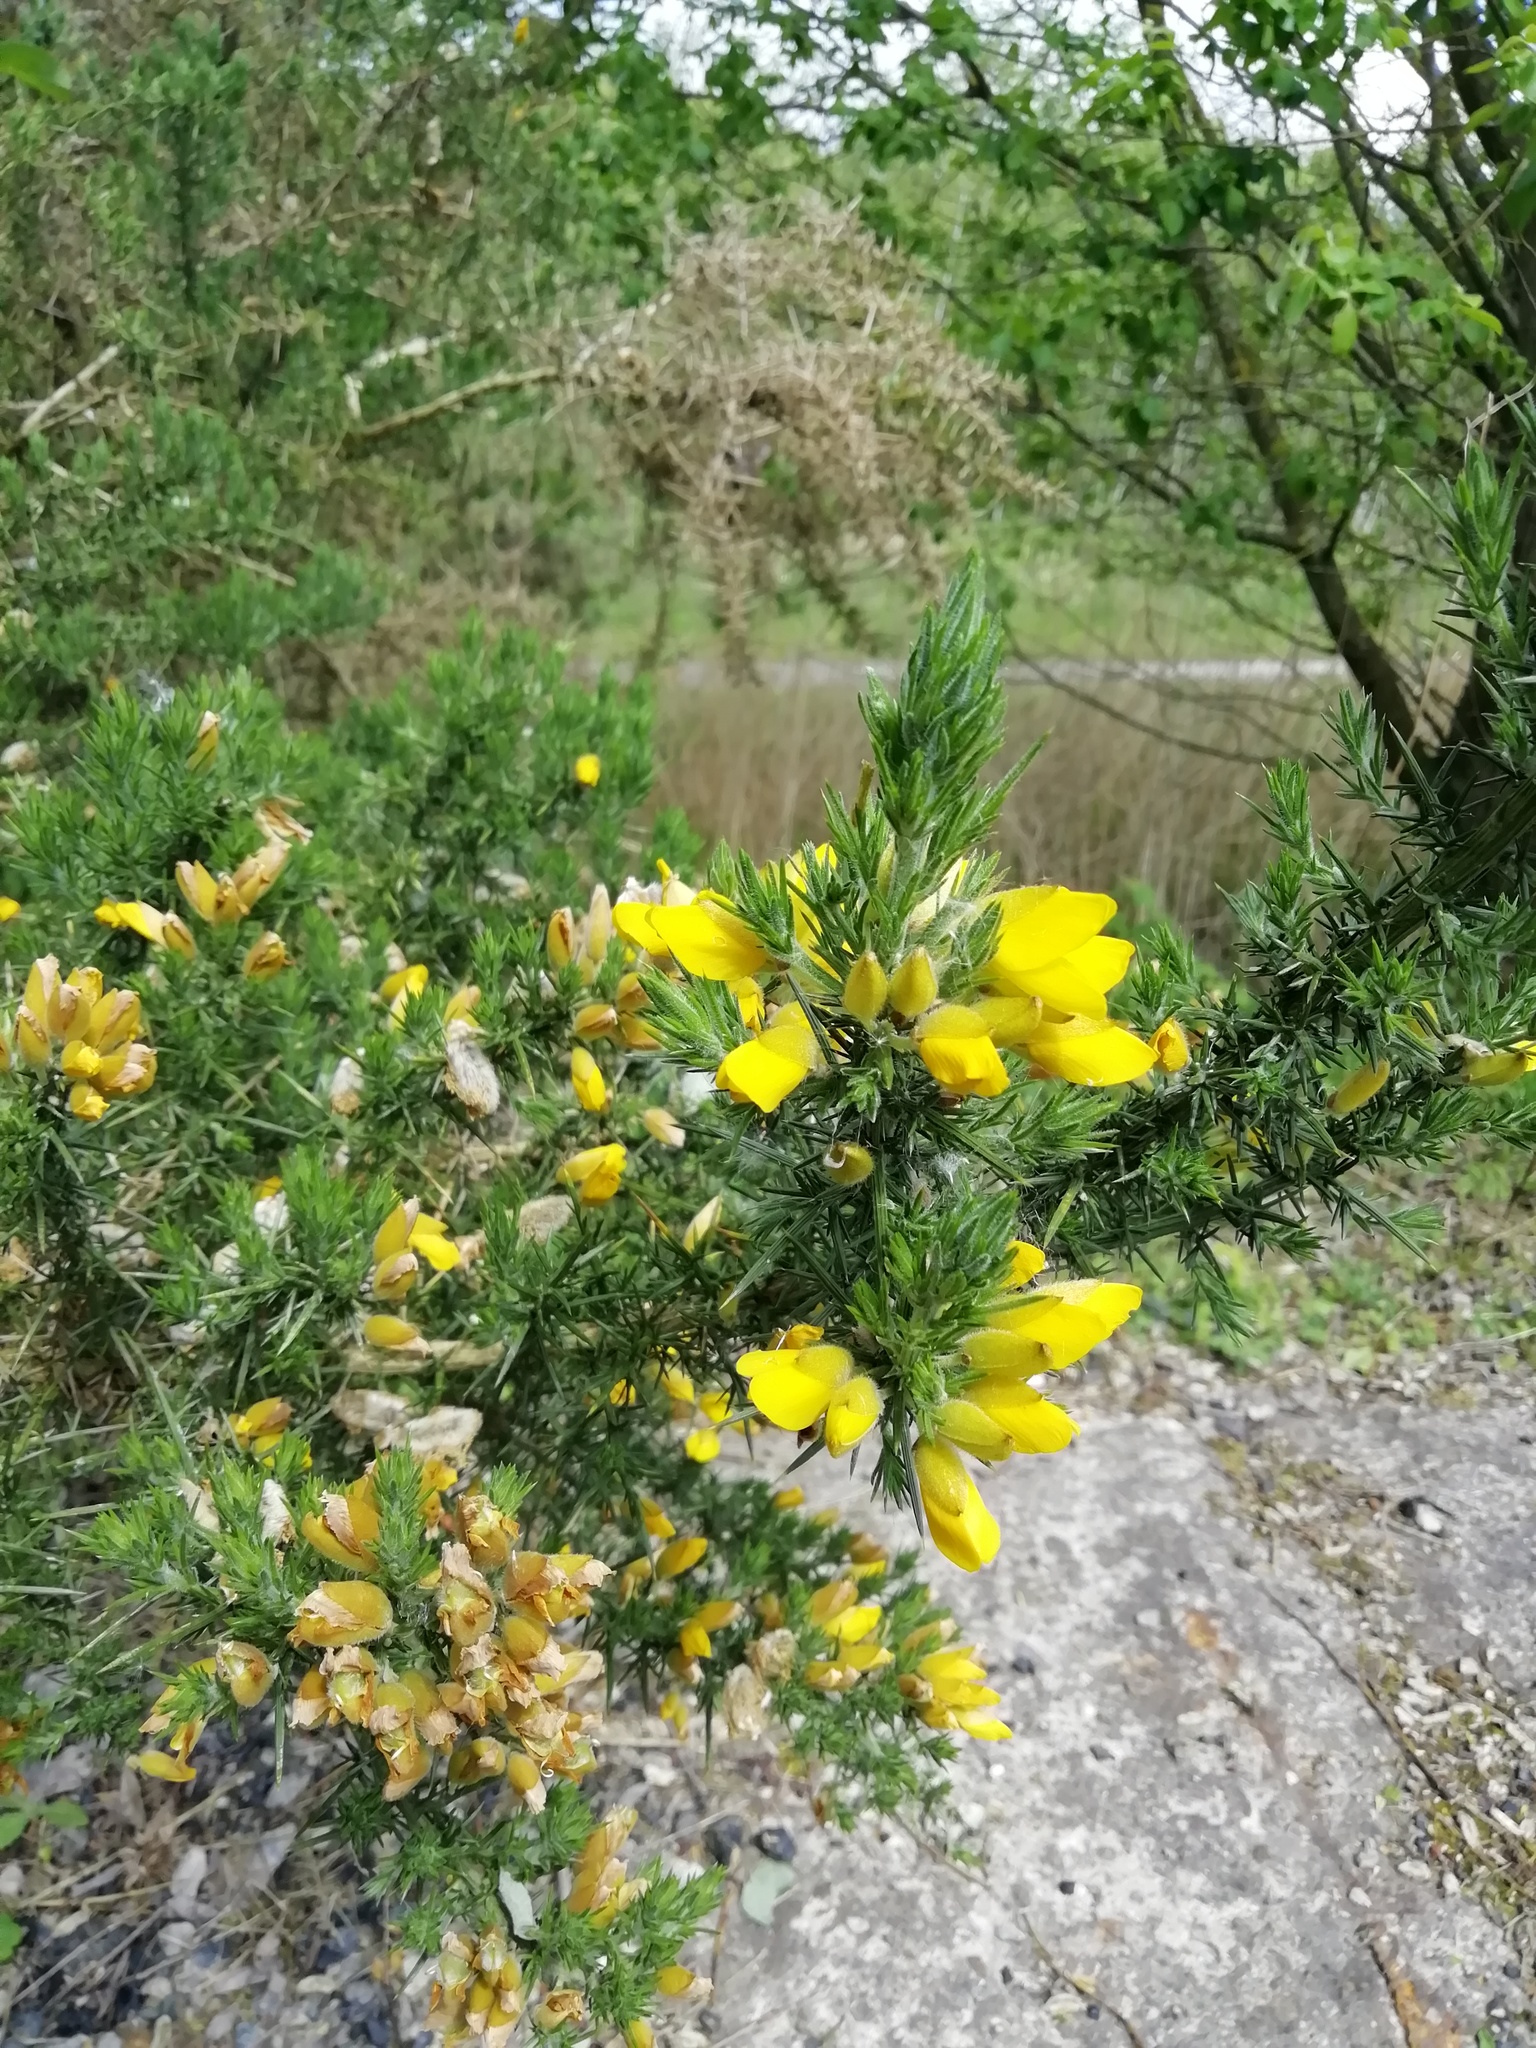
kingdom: Plantae
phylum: Tracheophyta
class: Magnoliopsida
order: Fabales
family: Fabaceae
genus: Ulex
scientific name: Ulex europaeus
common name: Common gorse
